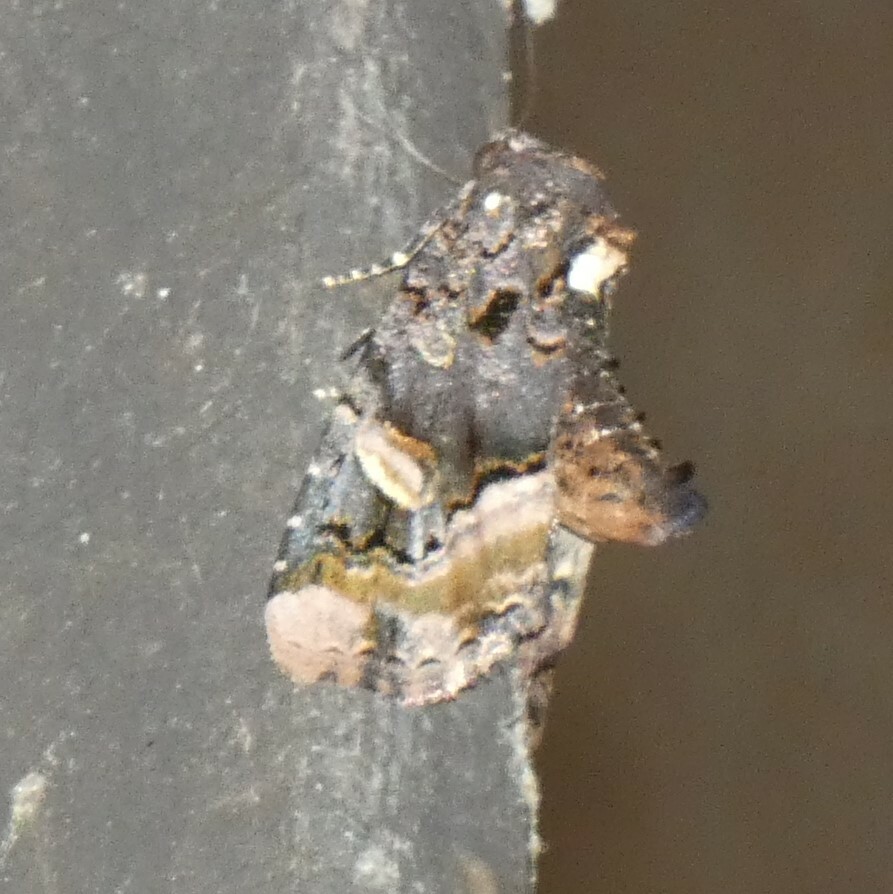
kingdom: Animalia
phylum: Arthropoda
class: Insecta
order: Lepidoptera
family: Noctuidae
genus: Homophoberia
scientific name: Homophoberia apicosa
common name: Black wedge-spot
